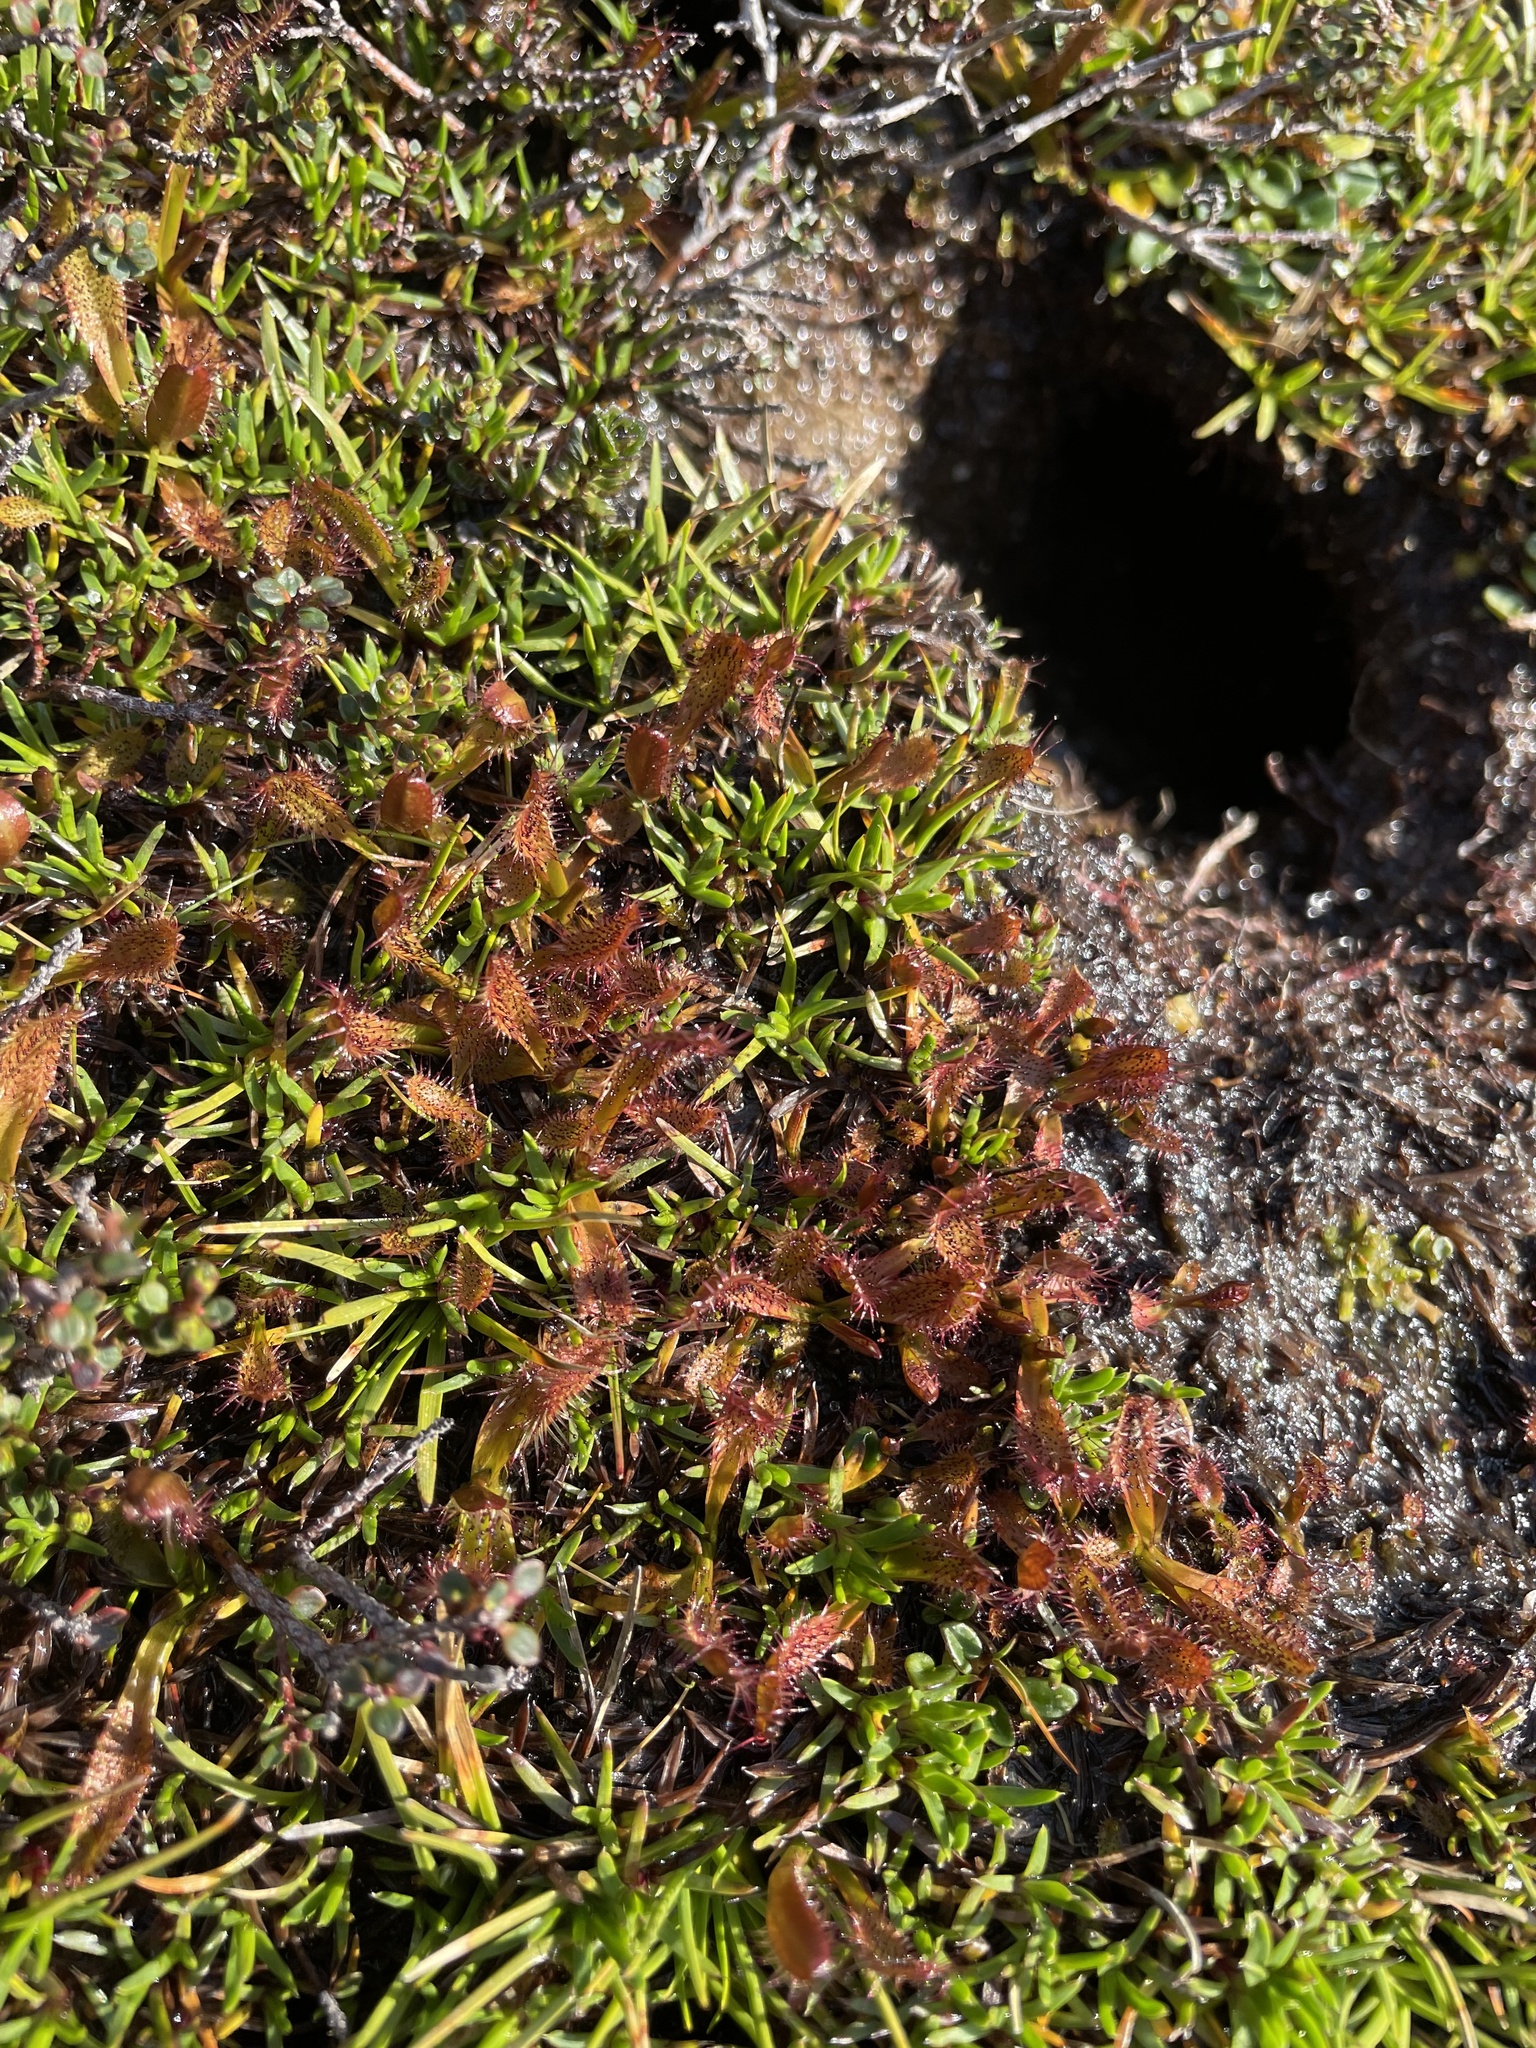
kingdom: Plantae
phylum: Tracheophyta
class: Magnoliopsida
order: Caryophyllales
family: Droseraceae
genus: Drosera
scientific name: Drosera arcturi
